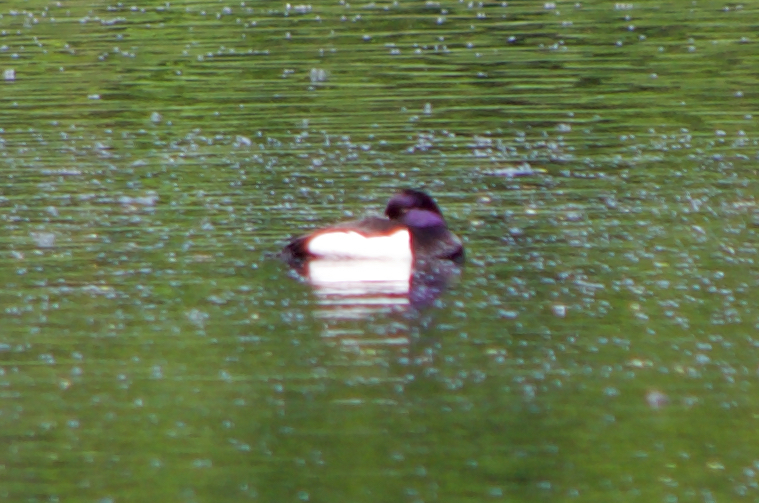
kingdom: Animalia
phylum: Chordata
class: Aves
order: Anseriformes
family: Anatidae
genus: Aythya
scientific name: Aythya fuligula
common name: Tufted duck
